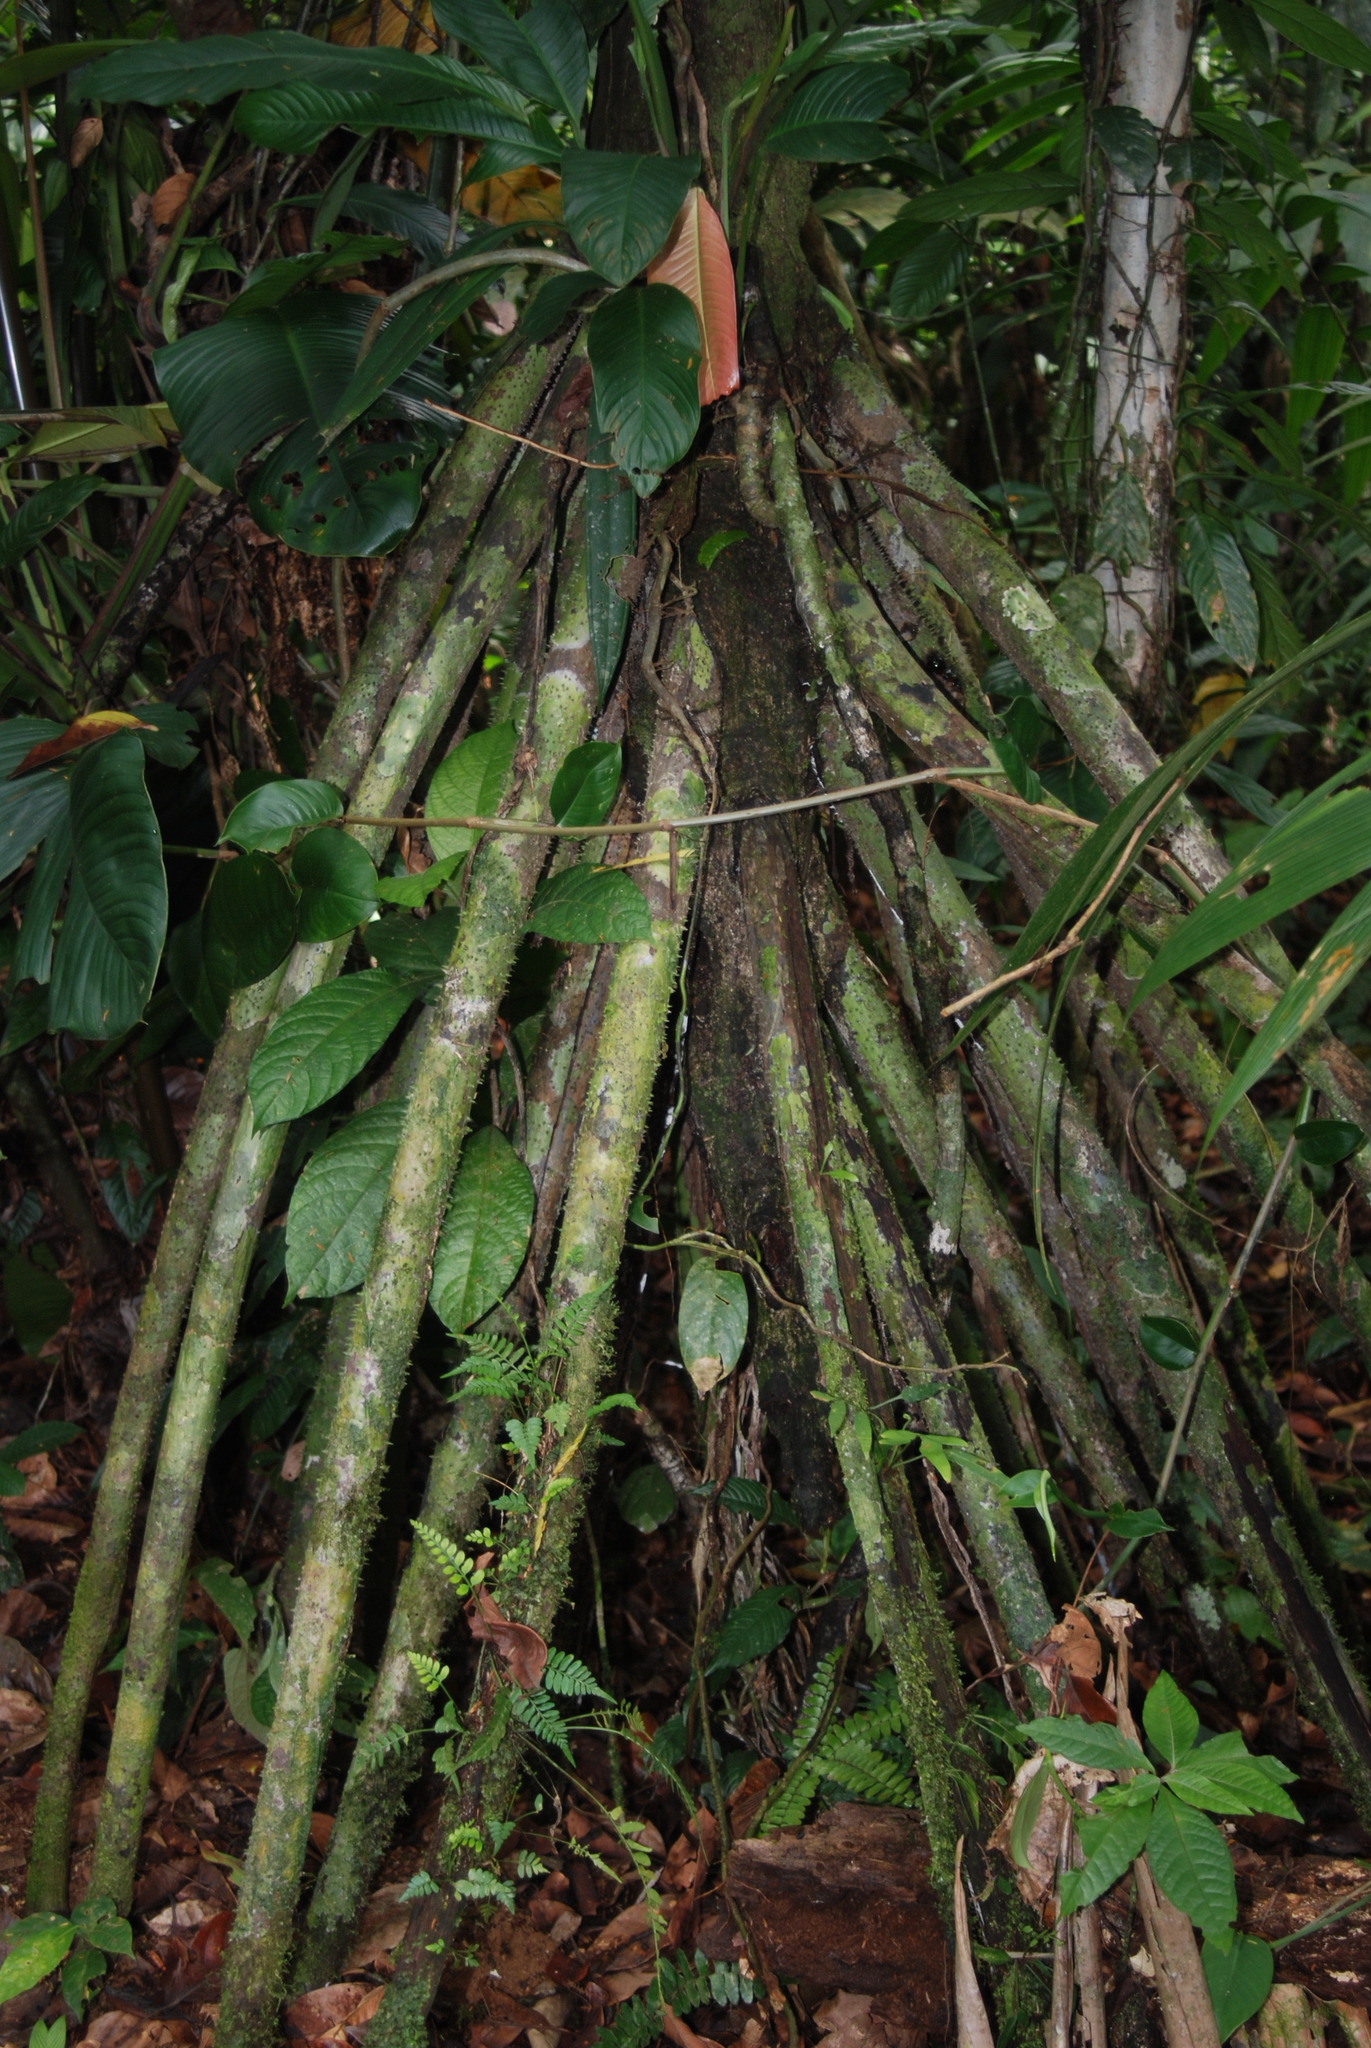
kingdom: Plantae
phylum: Tracheophyta
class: Liliopsida
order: Arecales
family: Arecaceae
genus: Socratea
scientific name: Socratea exorrhiza
